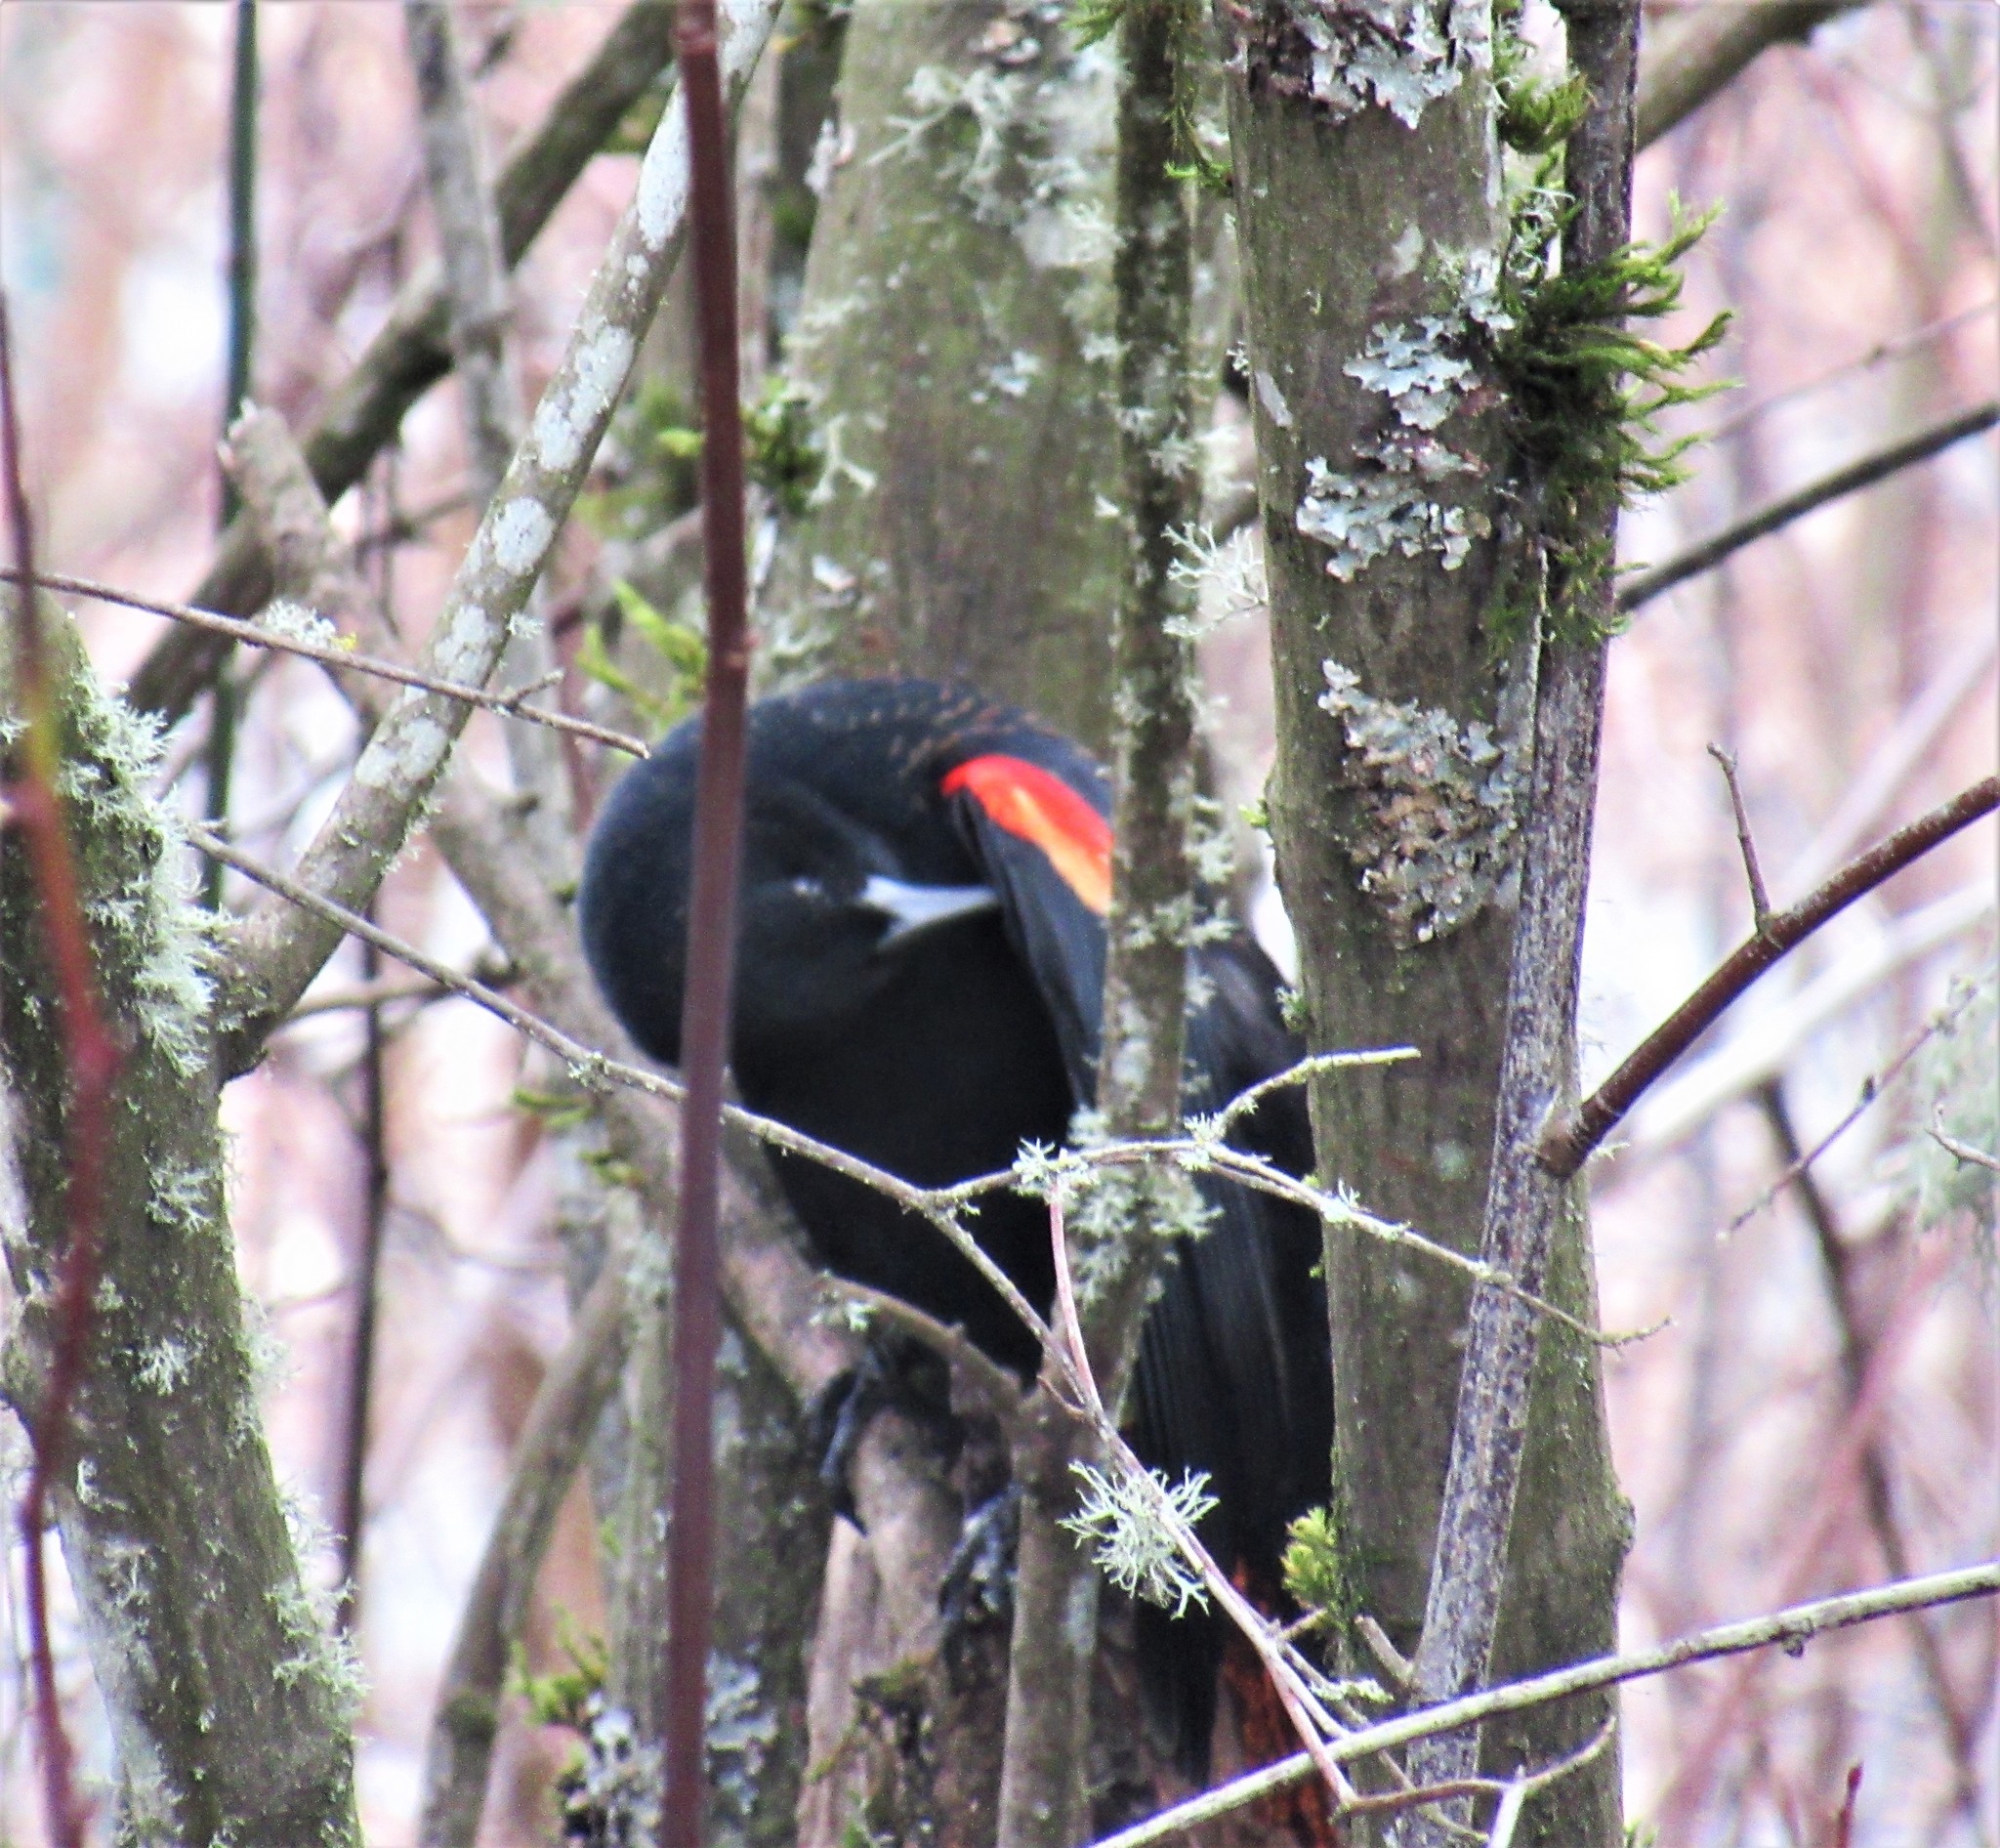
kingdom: Animalia
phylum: Chordata
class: Aves
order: Passeriformes
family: Icteridae
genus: Agelaius
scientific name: Agelaius phoeniceus
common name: Red-winged blackbird
